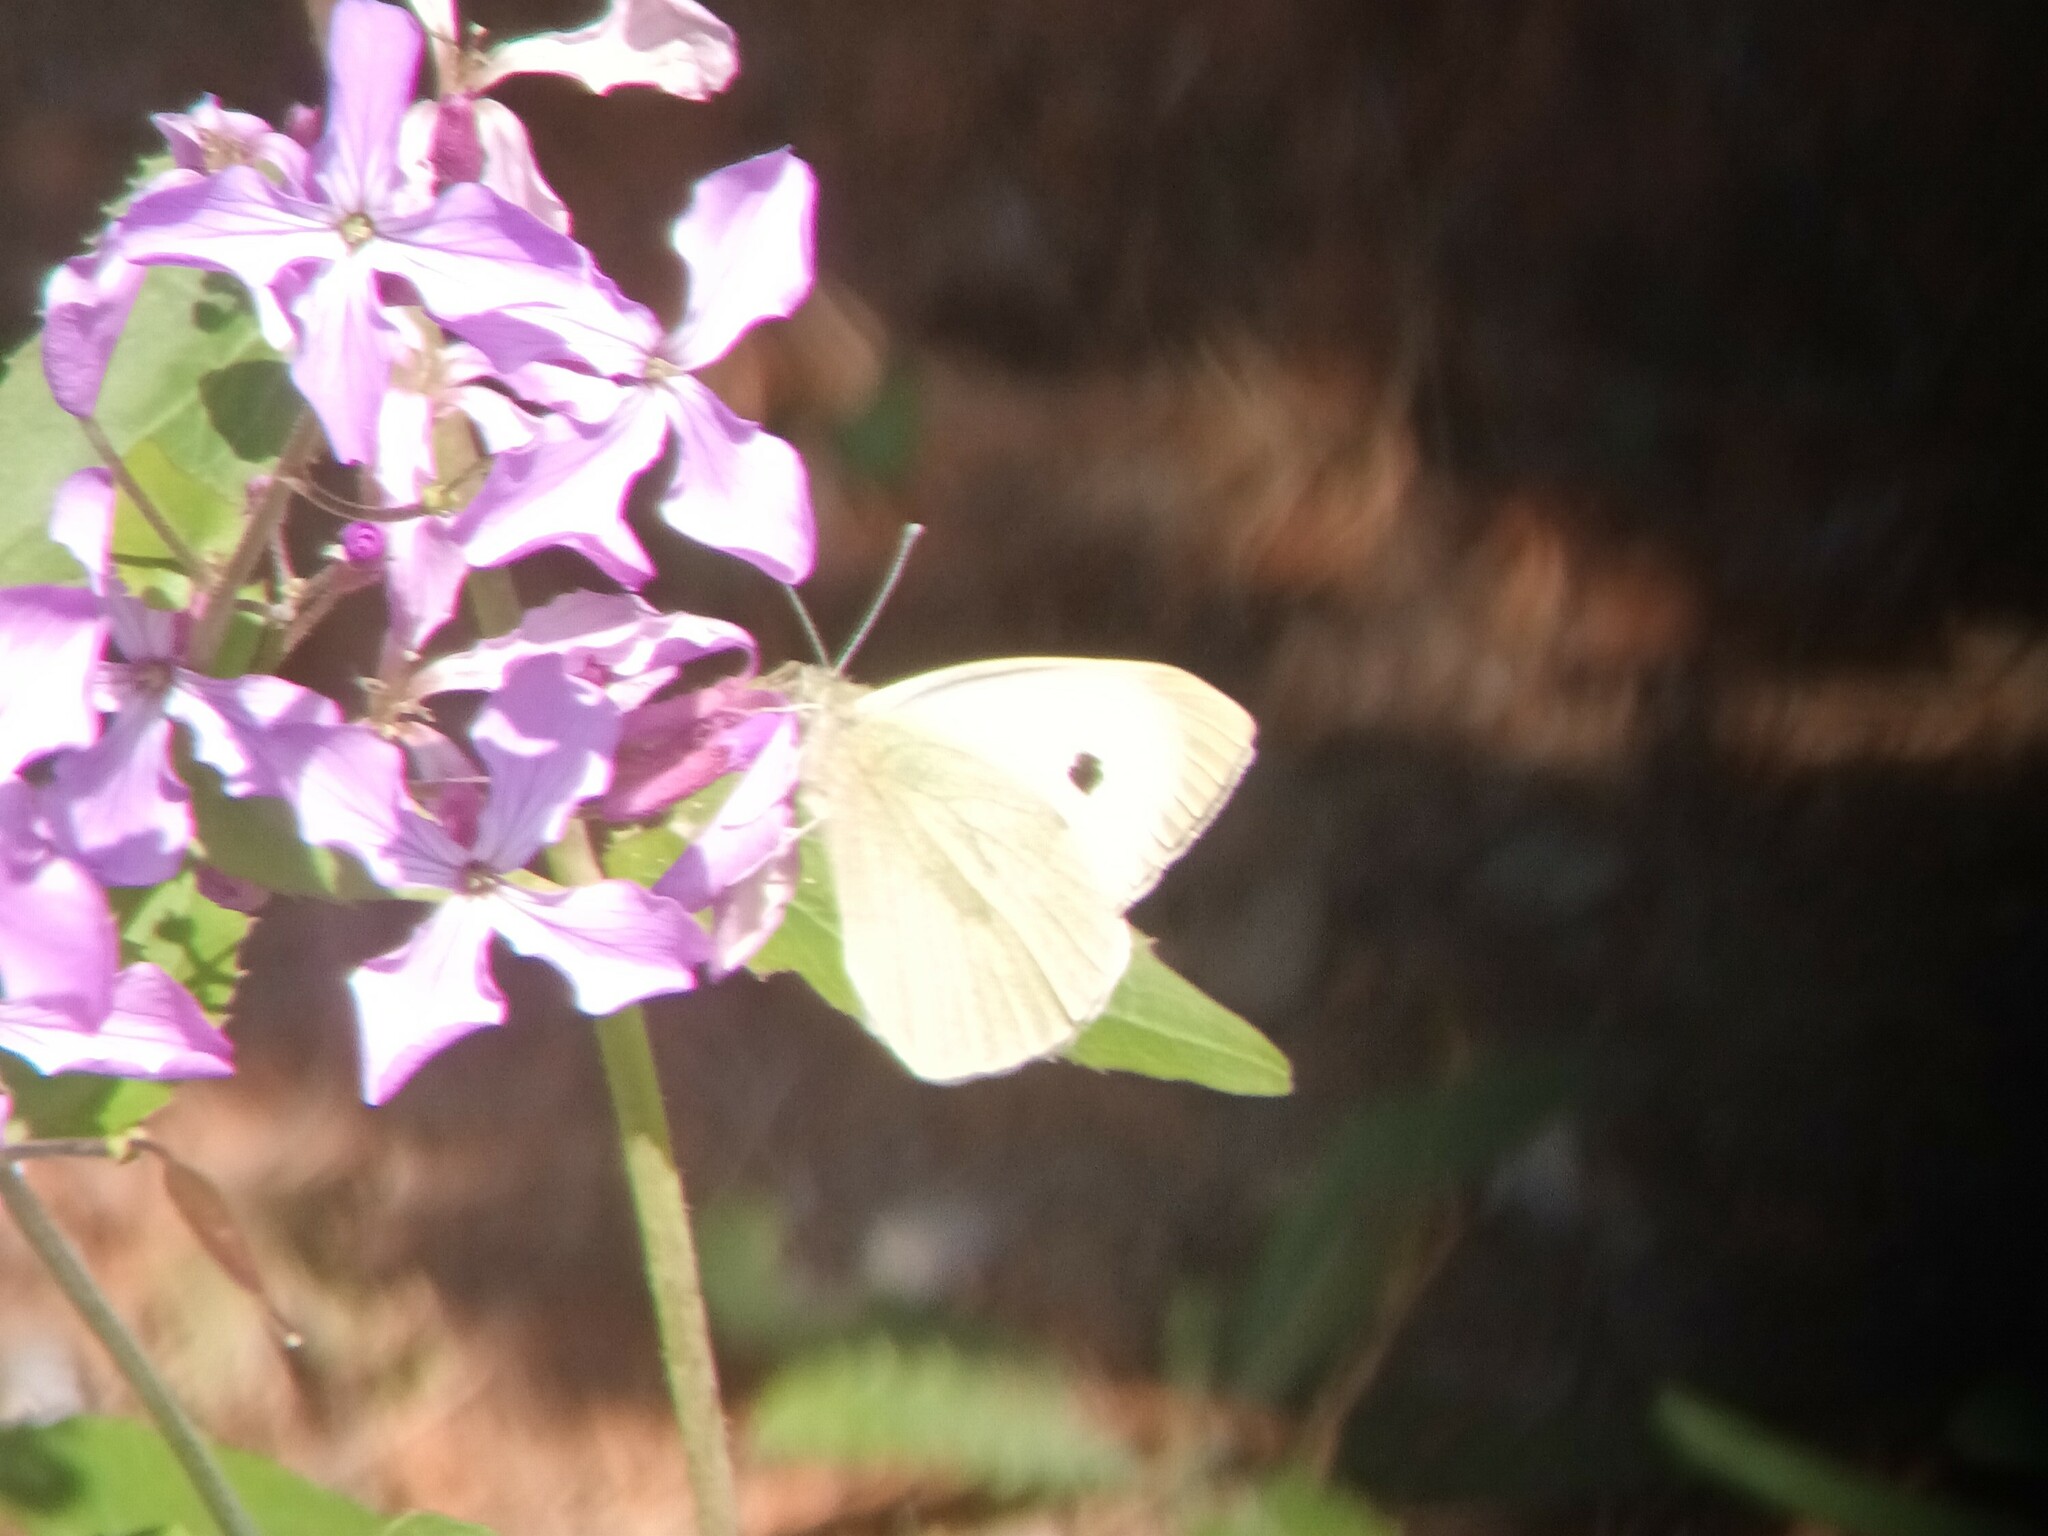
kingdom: Animalia
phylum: Arthropoda
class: Insecta
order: Lepidoptera
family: Pieridae
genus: Pieris
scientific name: Pieris brassicae
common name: Large white
